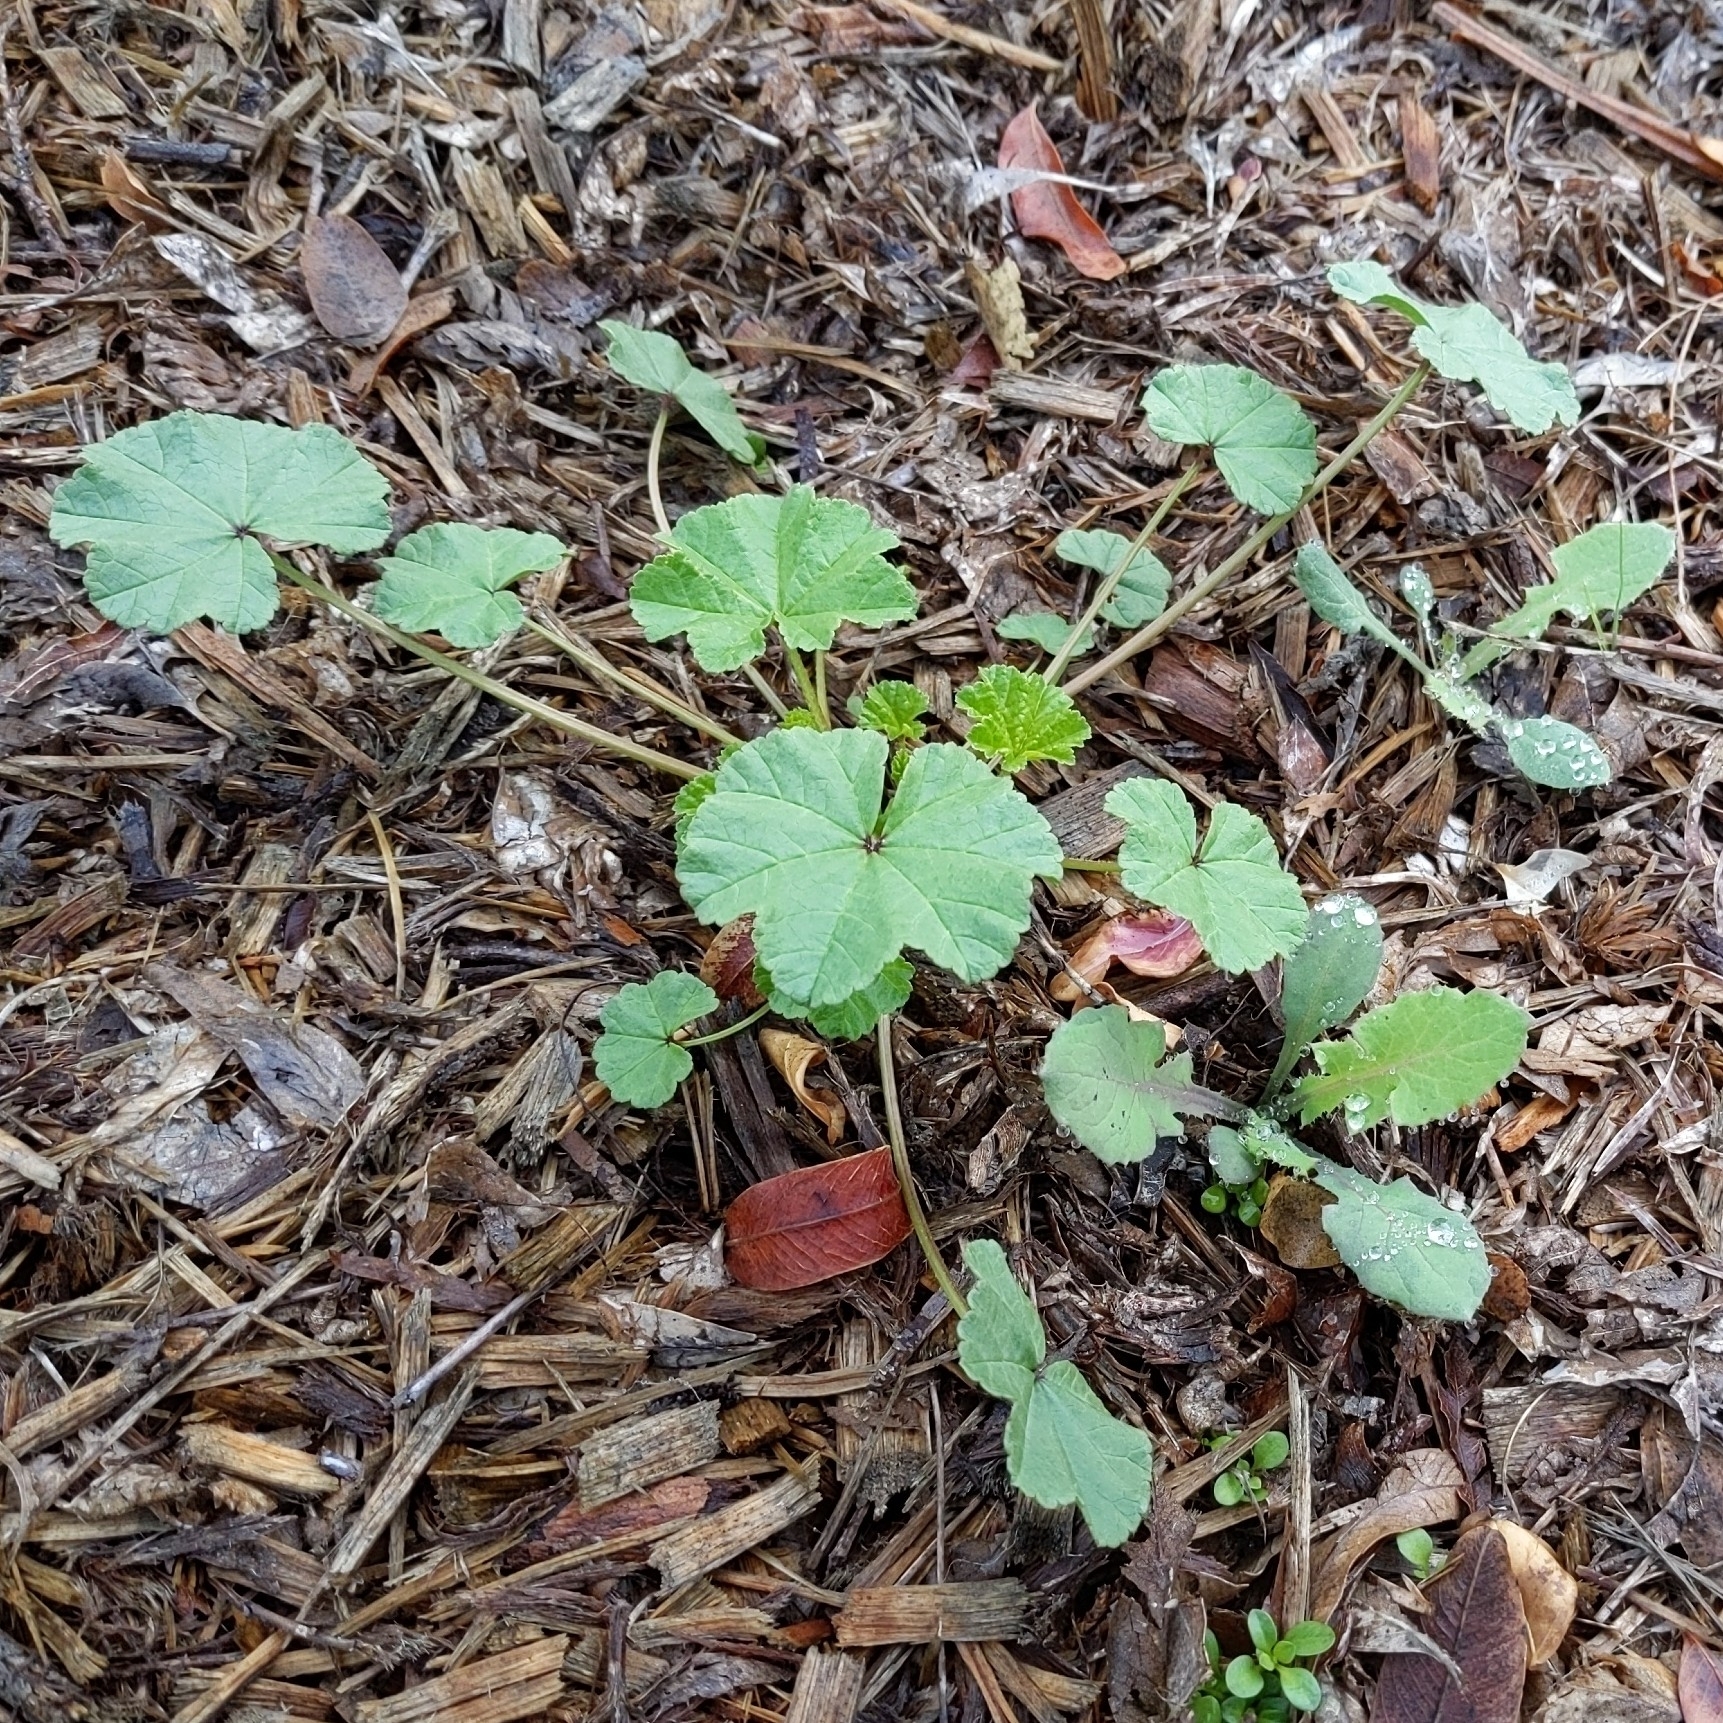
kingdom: Plantae
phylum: Tracheophyta
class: Magnoliopsida
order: Malvales
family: Malvaceae
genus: Malva
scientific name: Malva
